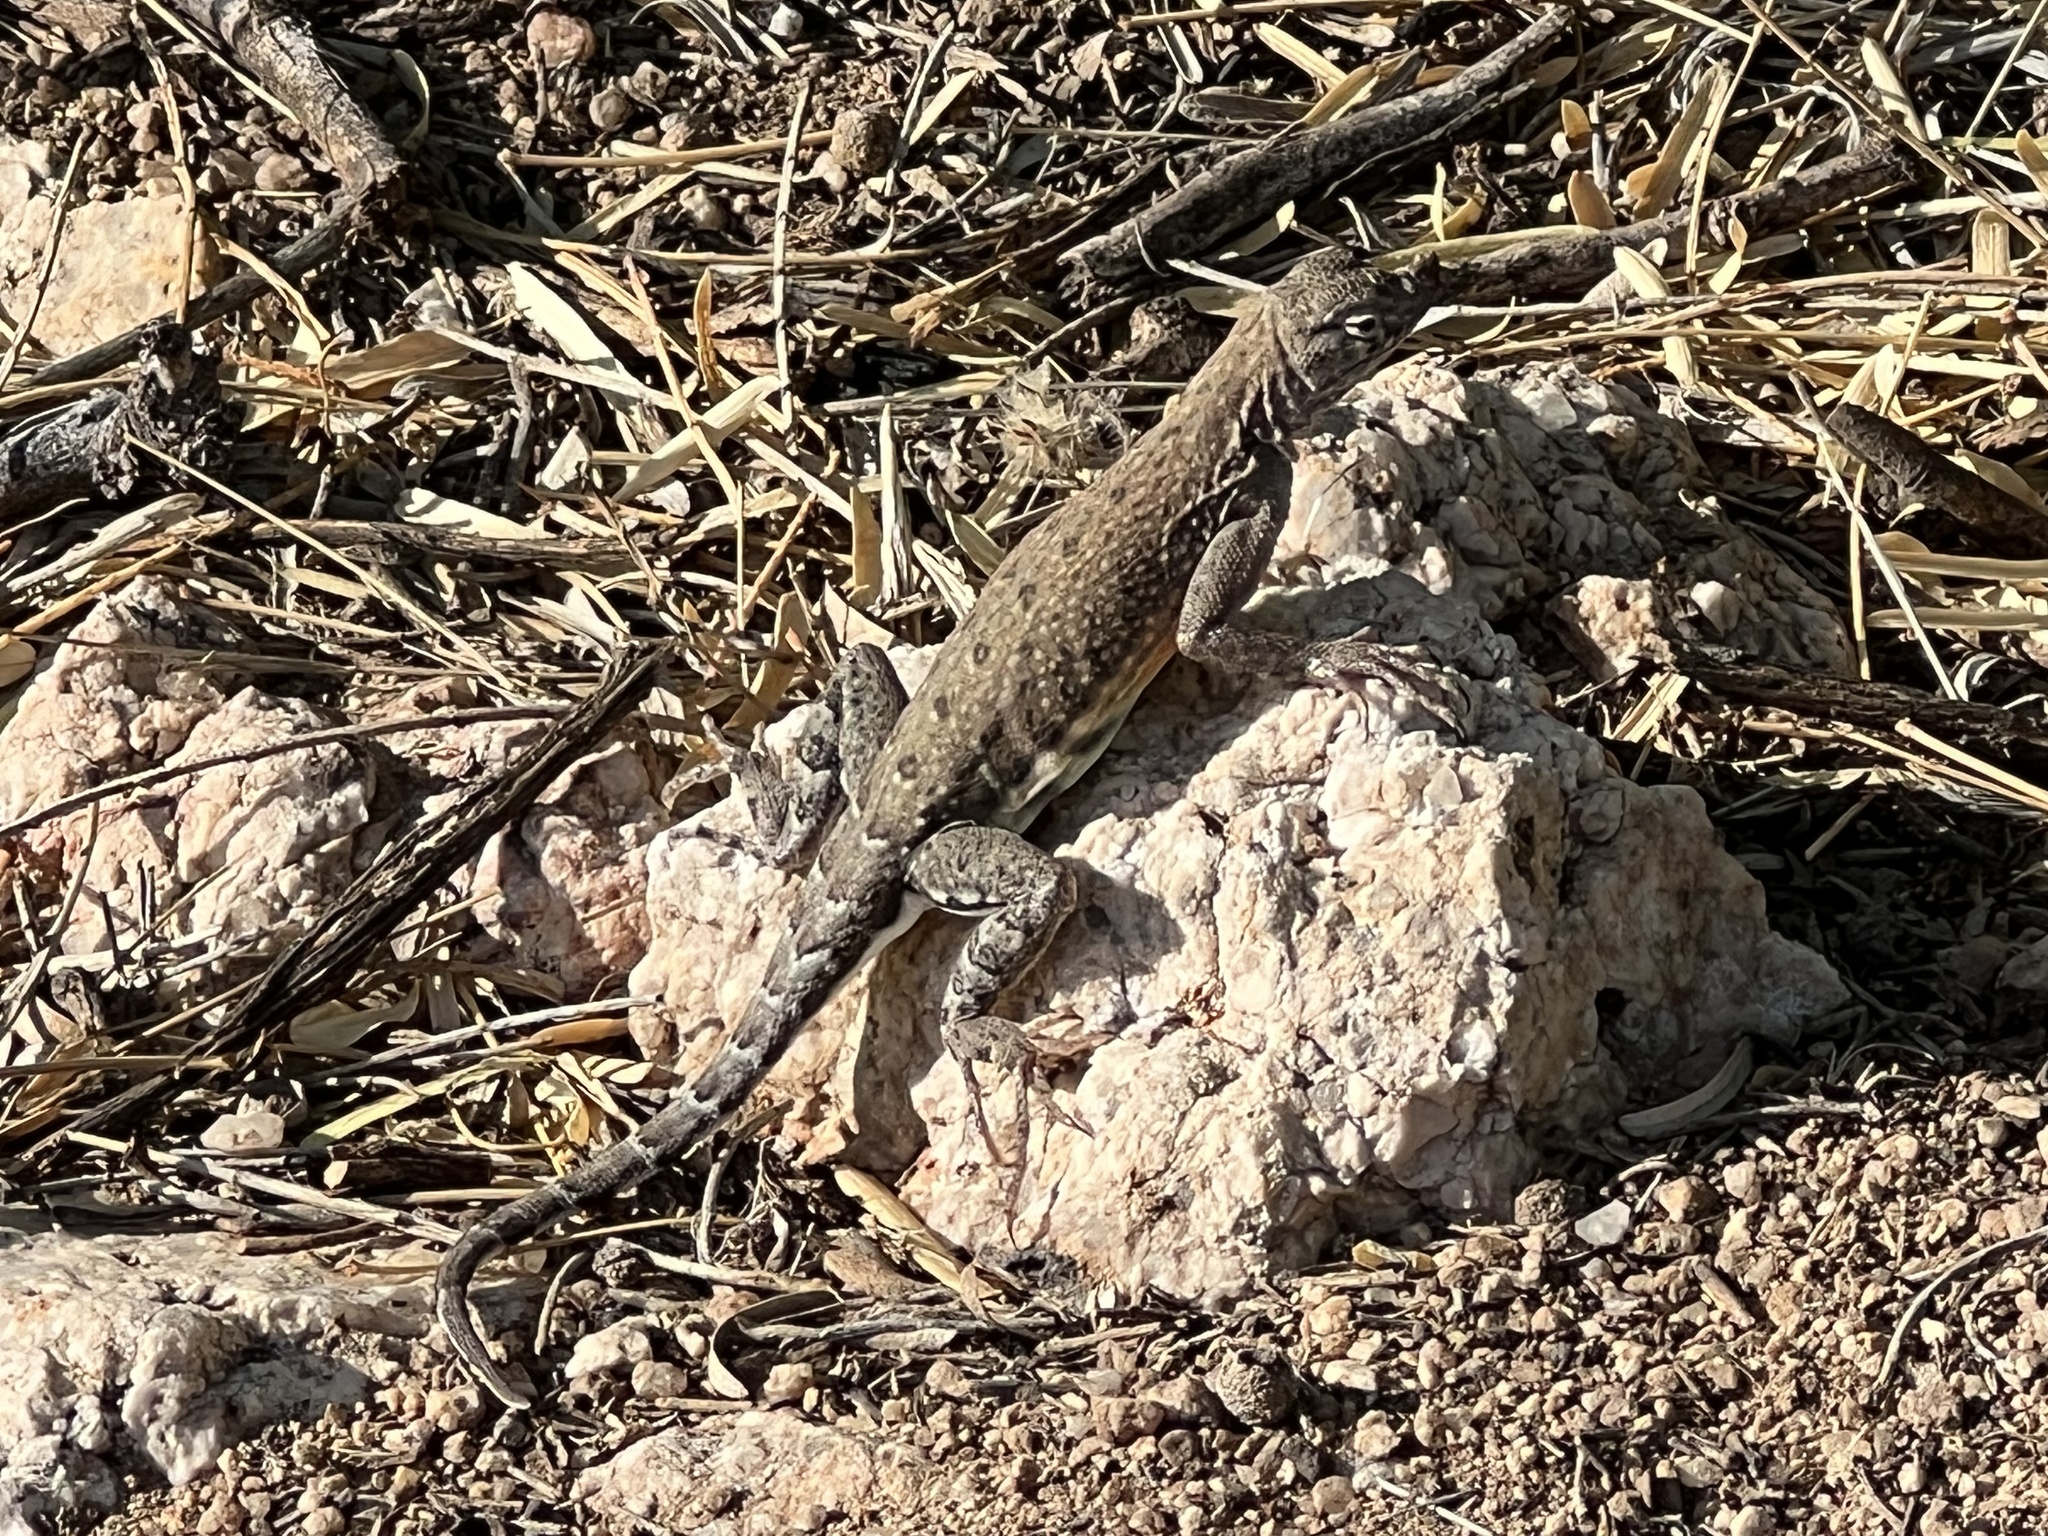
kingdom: Animalia
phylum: Chordata
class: Squamata
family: Phrynosomatidae
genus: Cophosaurus
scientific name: Cophosaurus texanus
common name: Greater earless lizard
